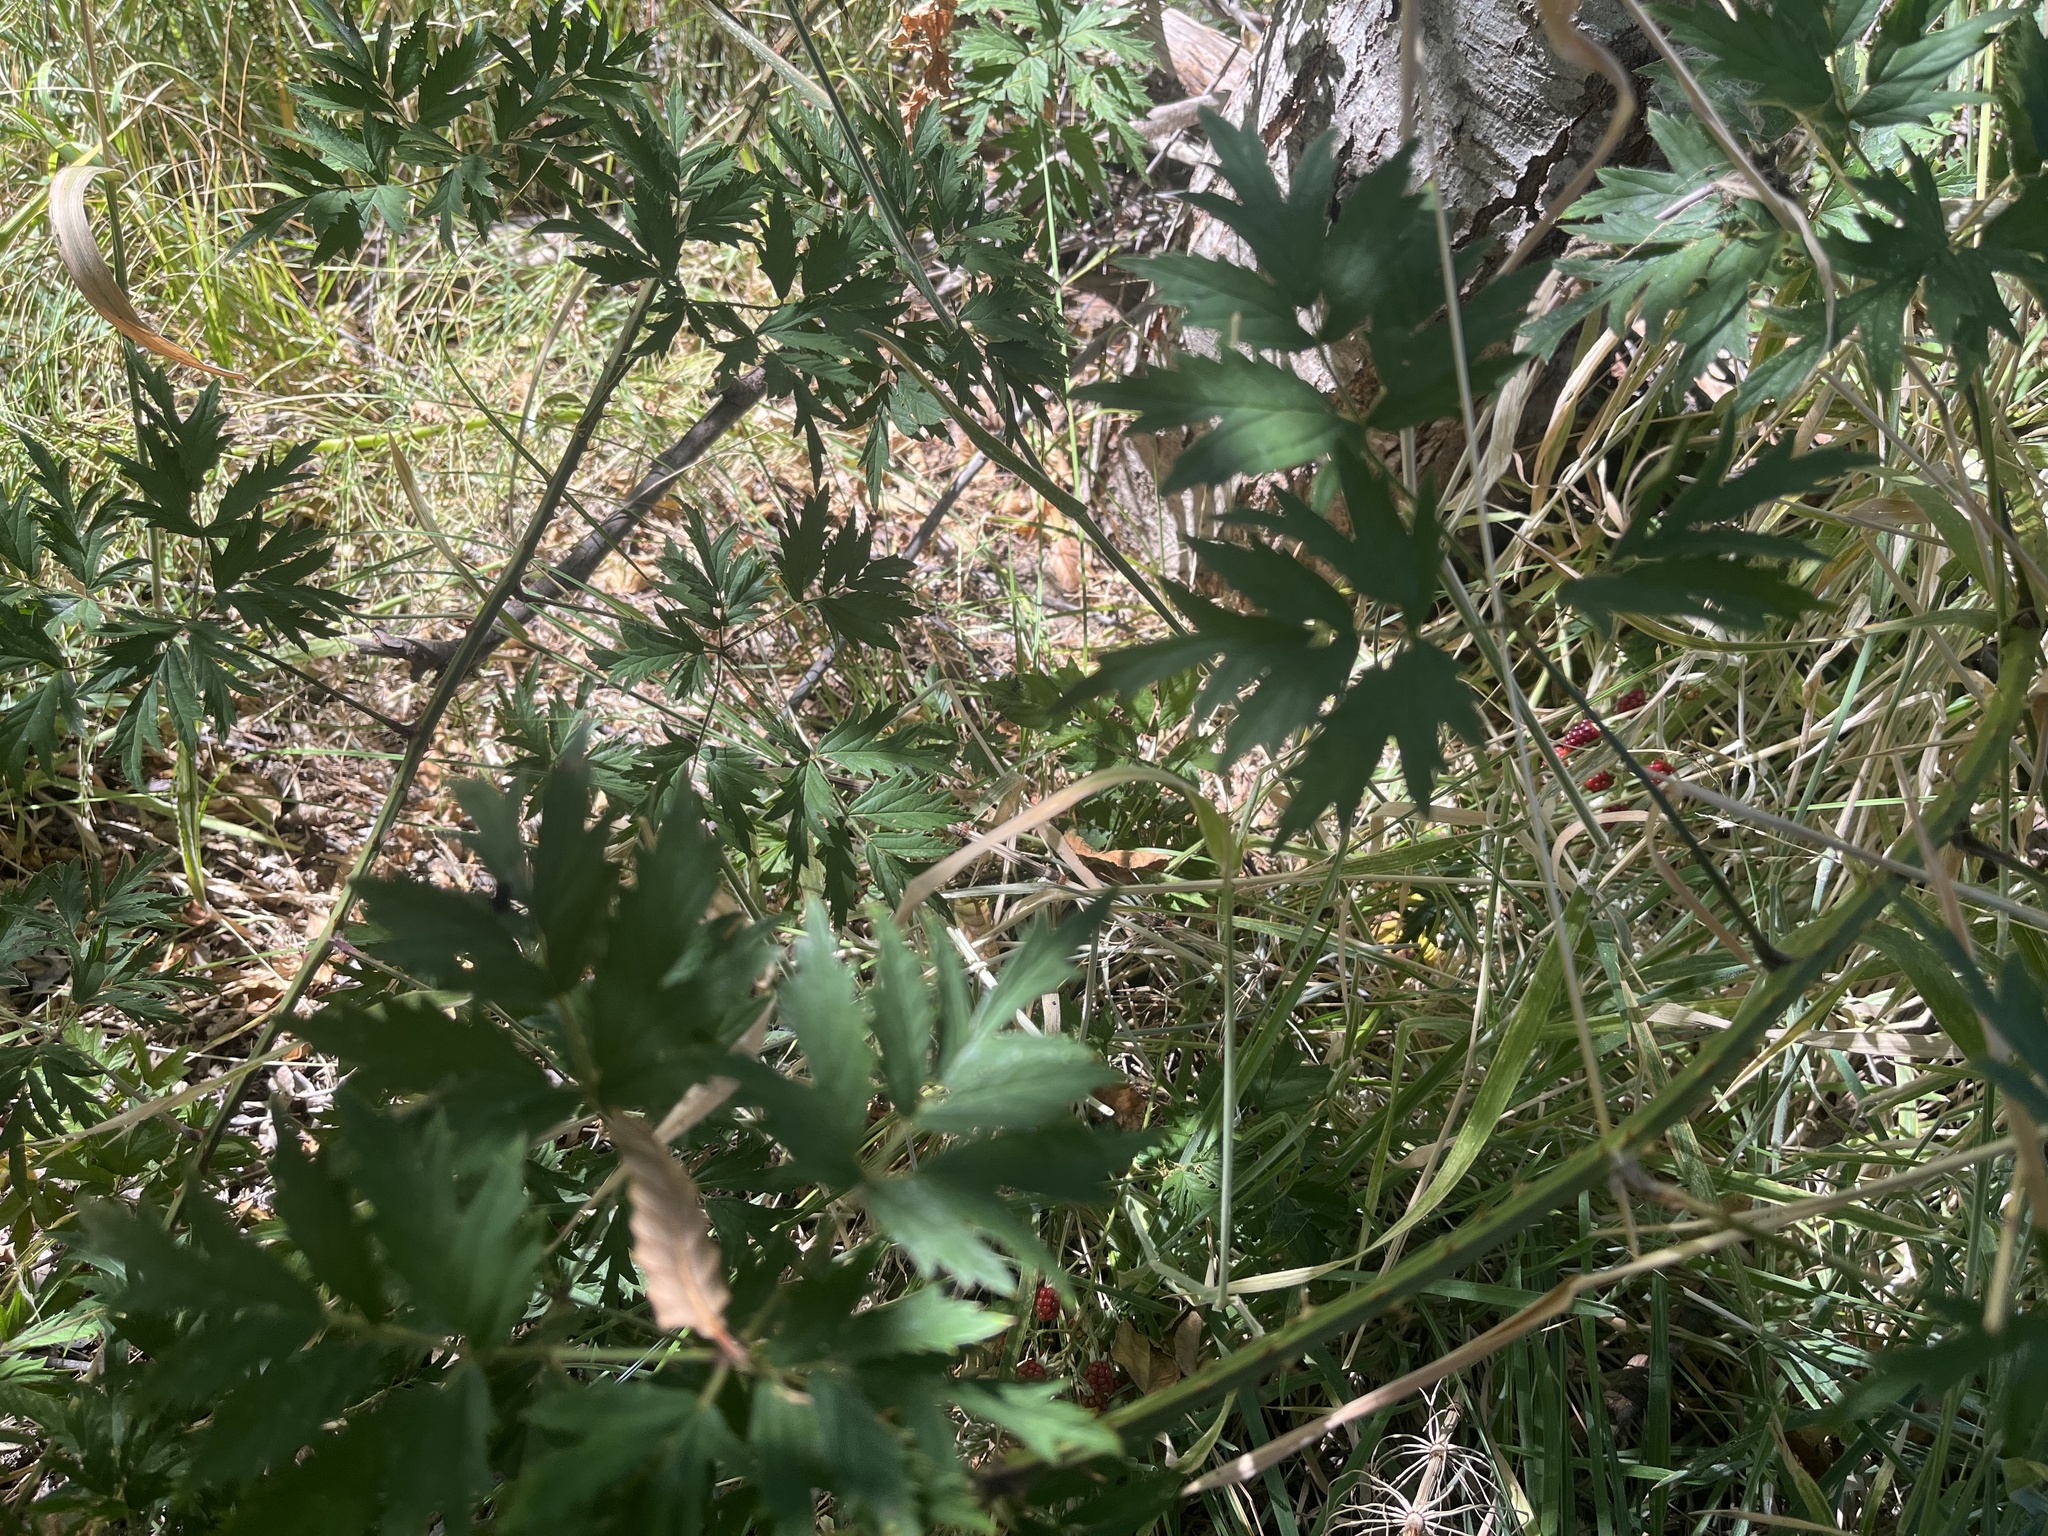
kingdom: Plantae
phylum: Tracheophyta
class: Magnoliopsida
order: Rosales
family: Rosaceae
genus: Rubus
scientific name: Rubus laciniatus
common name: Evergreen blackberry
